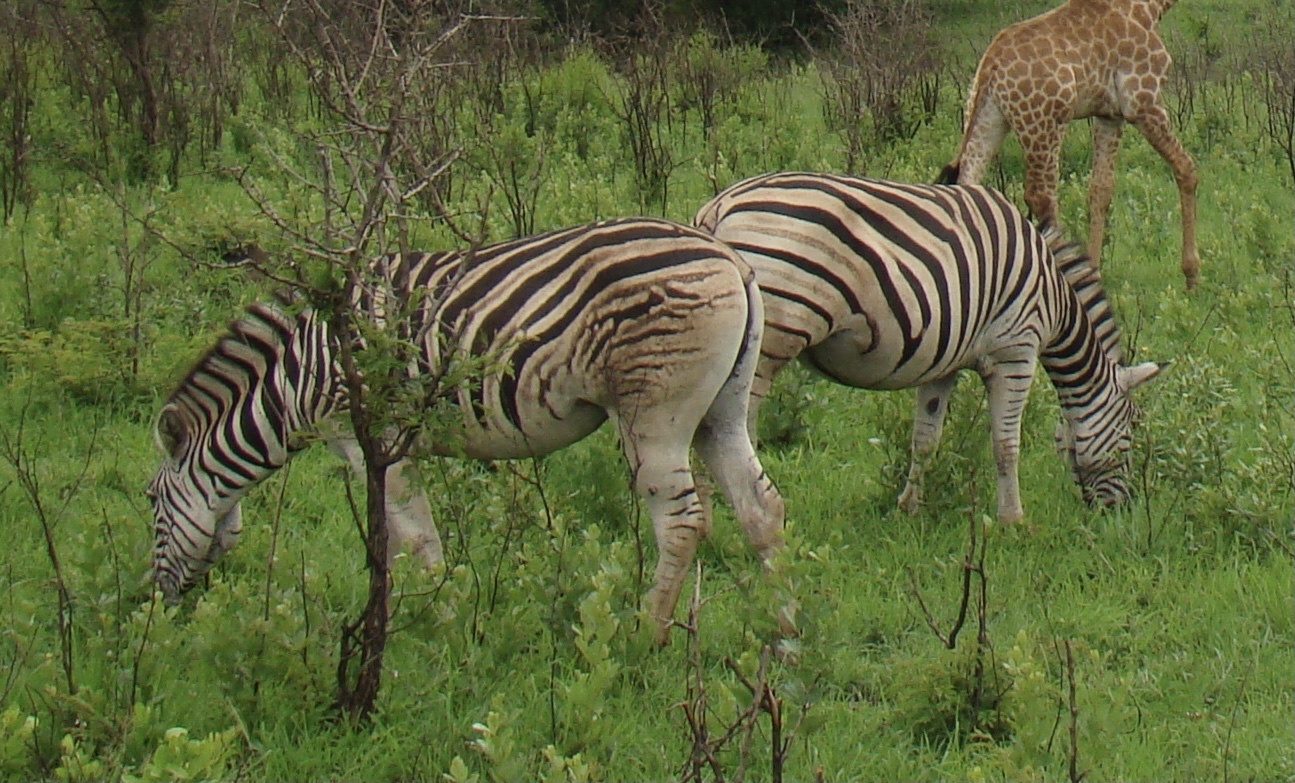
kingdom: Animalia
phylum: Chordata
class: Mammalia
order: Perissodactyla
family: Equidae
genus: Equus
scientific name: Equus quagga
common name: Plains zebra
